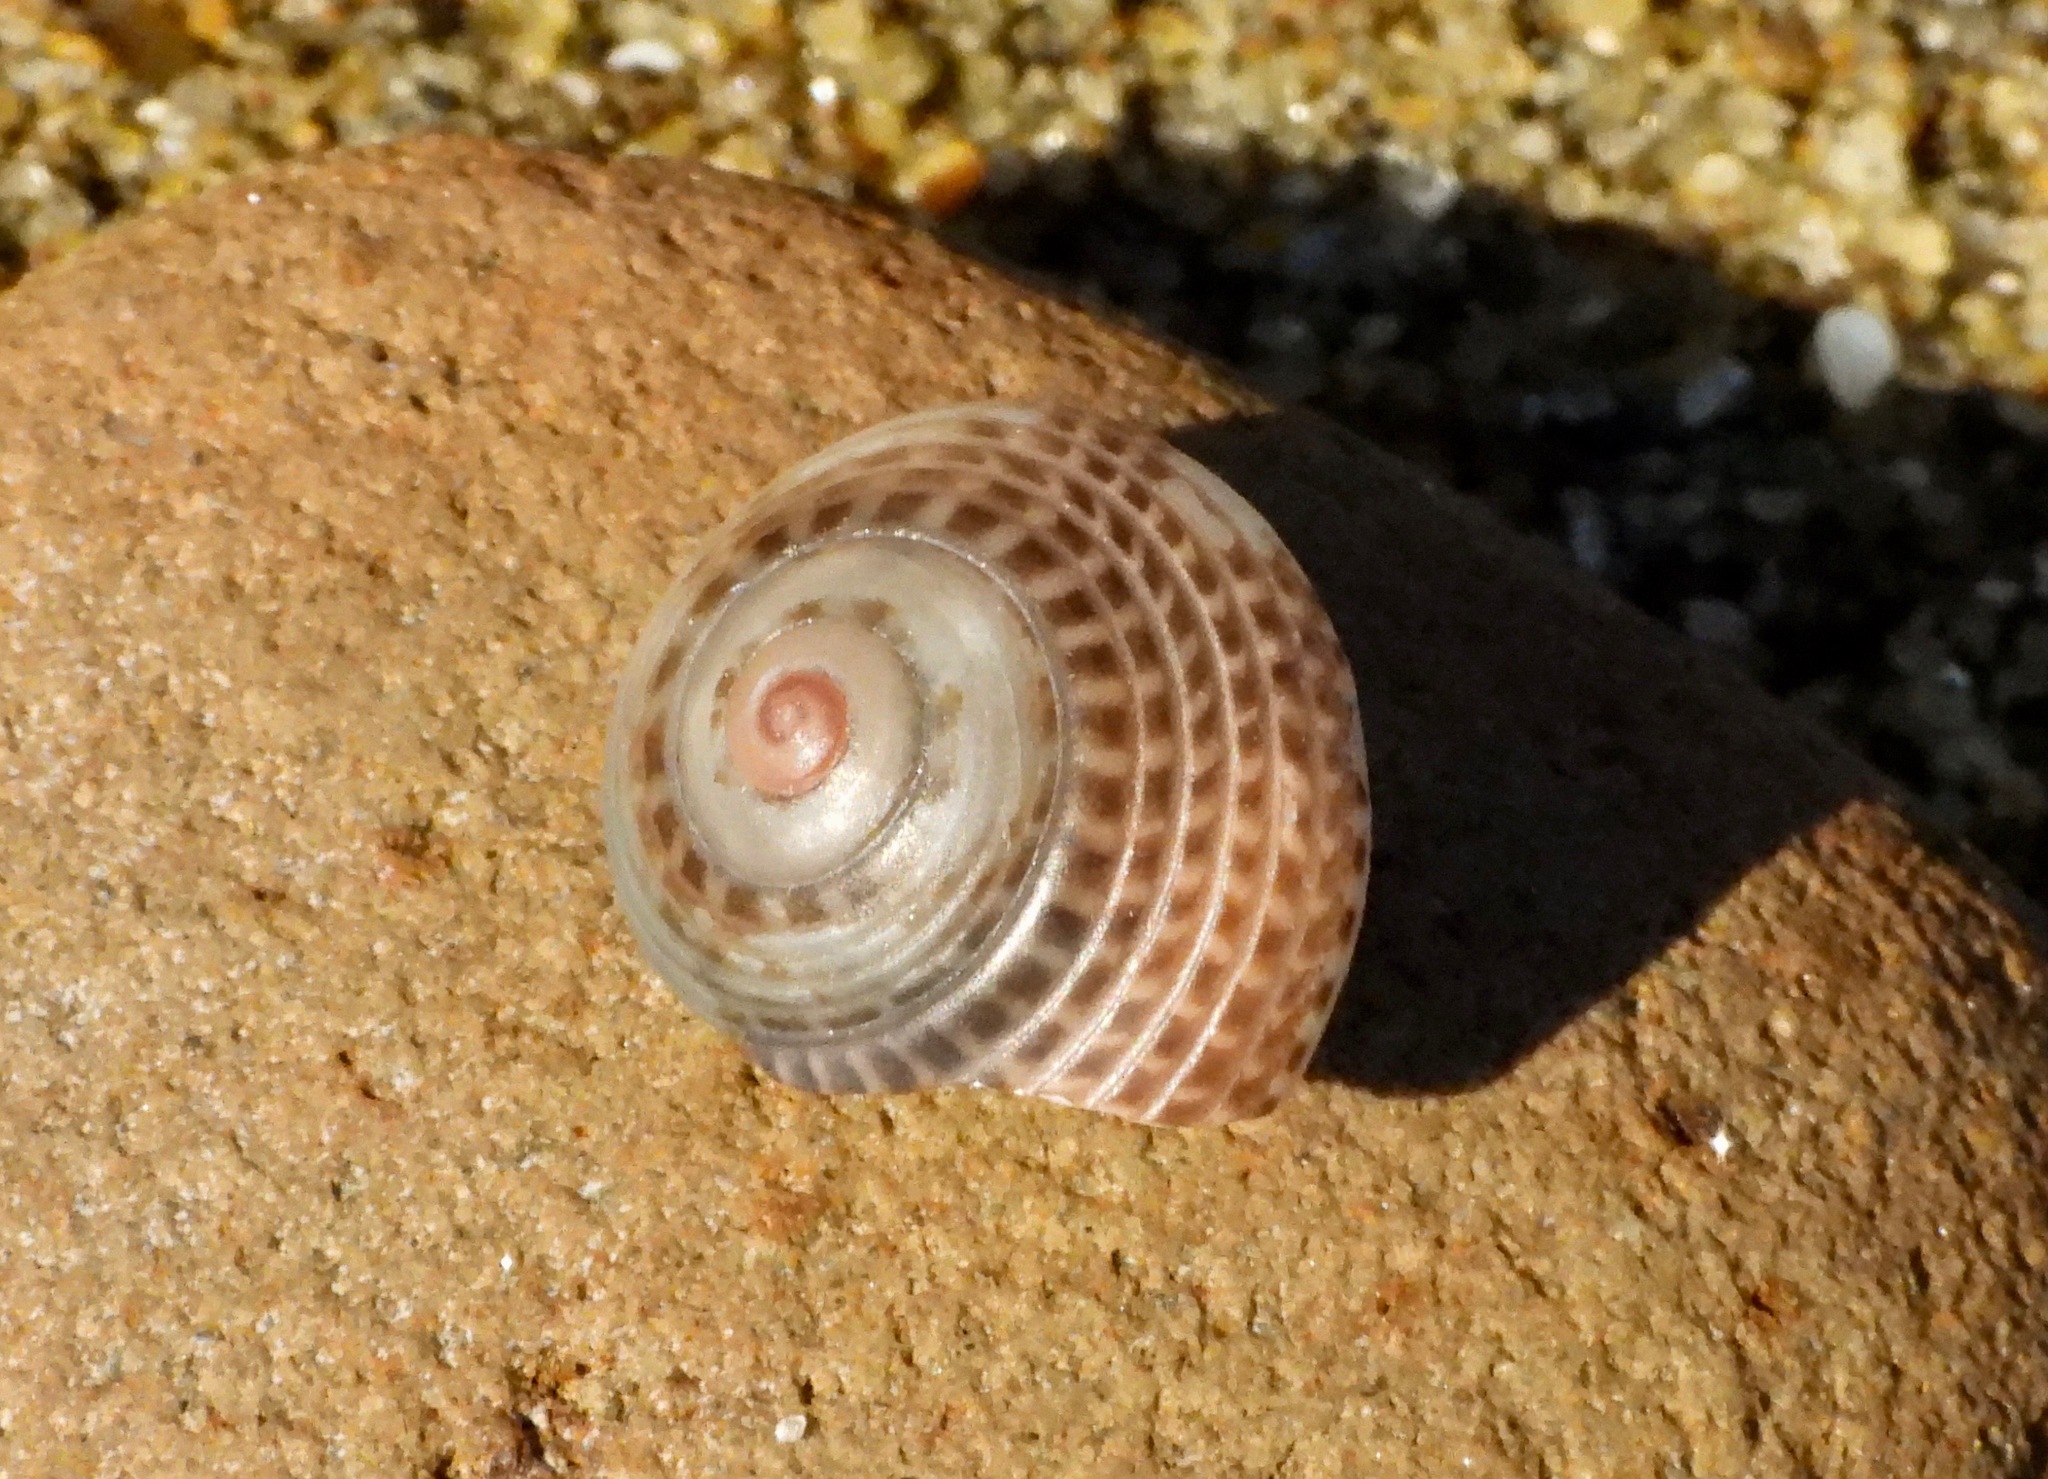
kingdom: Animalia
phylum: Mollusca
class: Gastropoda
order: Trochida
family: Trochidae
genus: Umbonium
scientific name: Umbonium costatum
